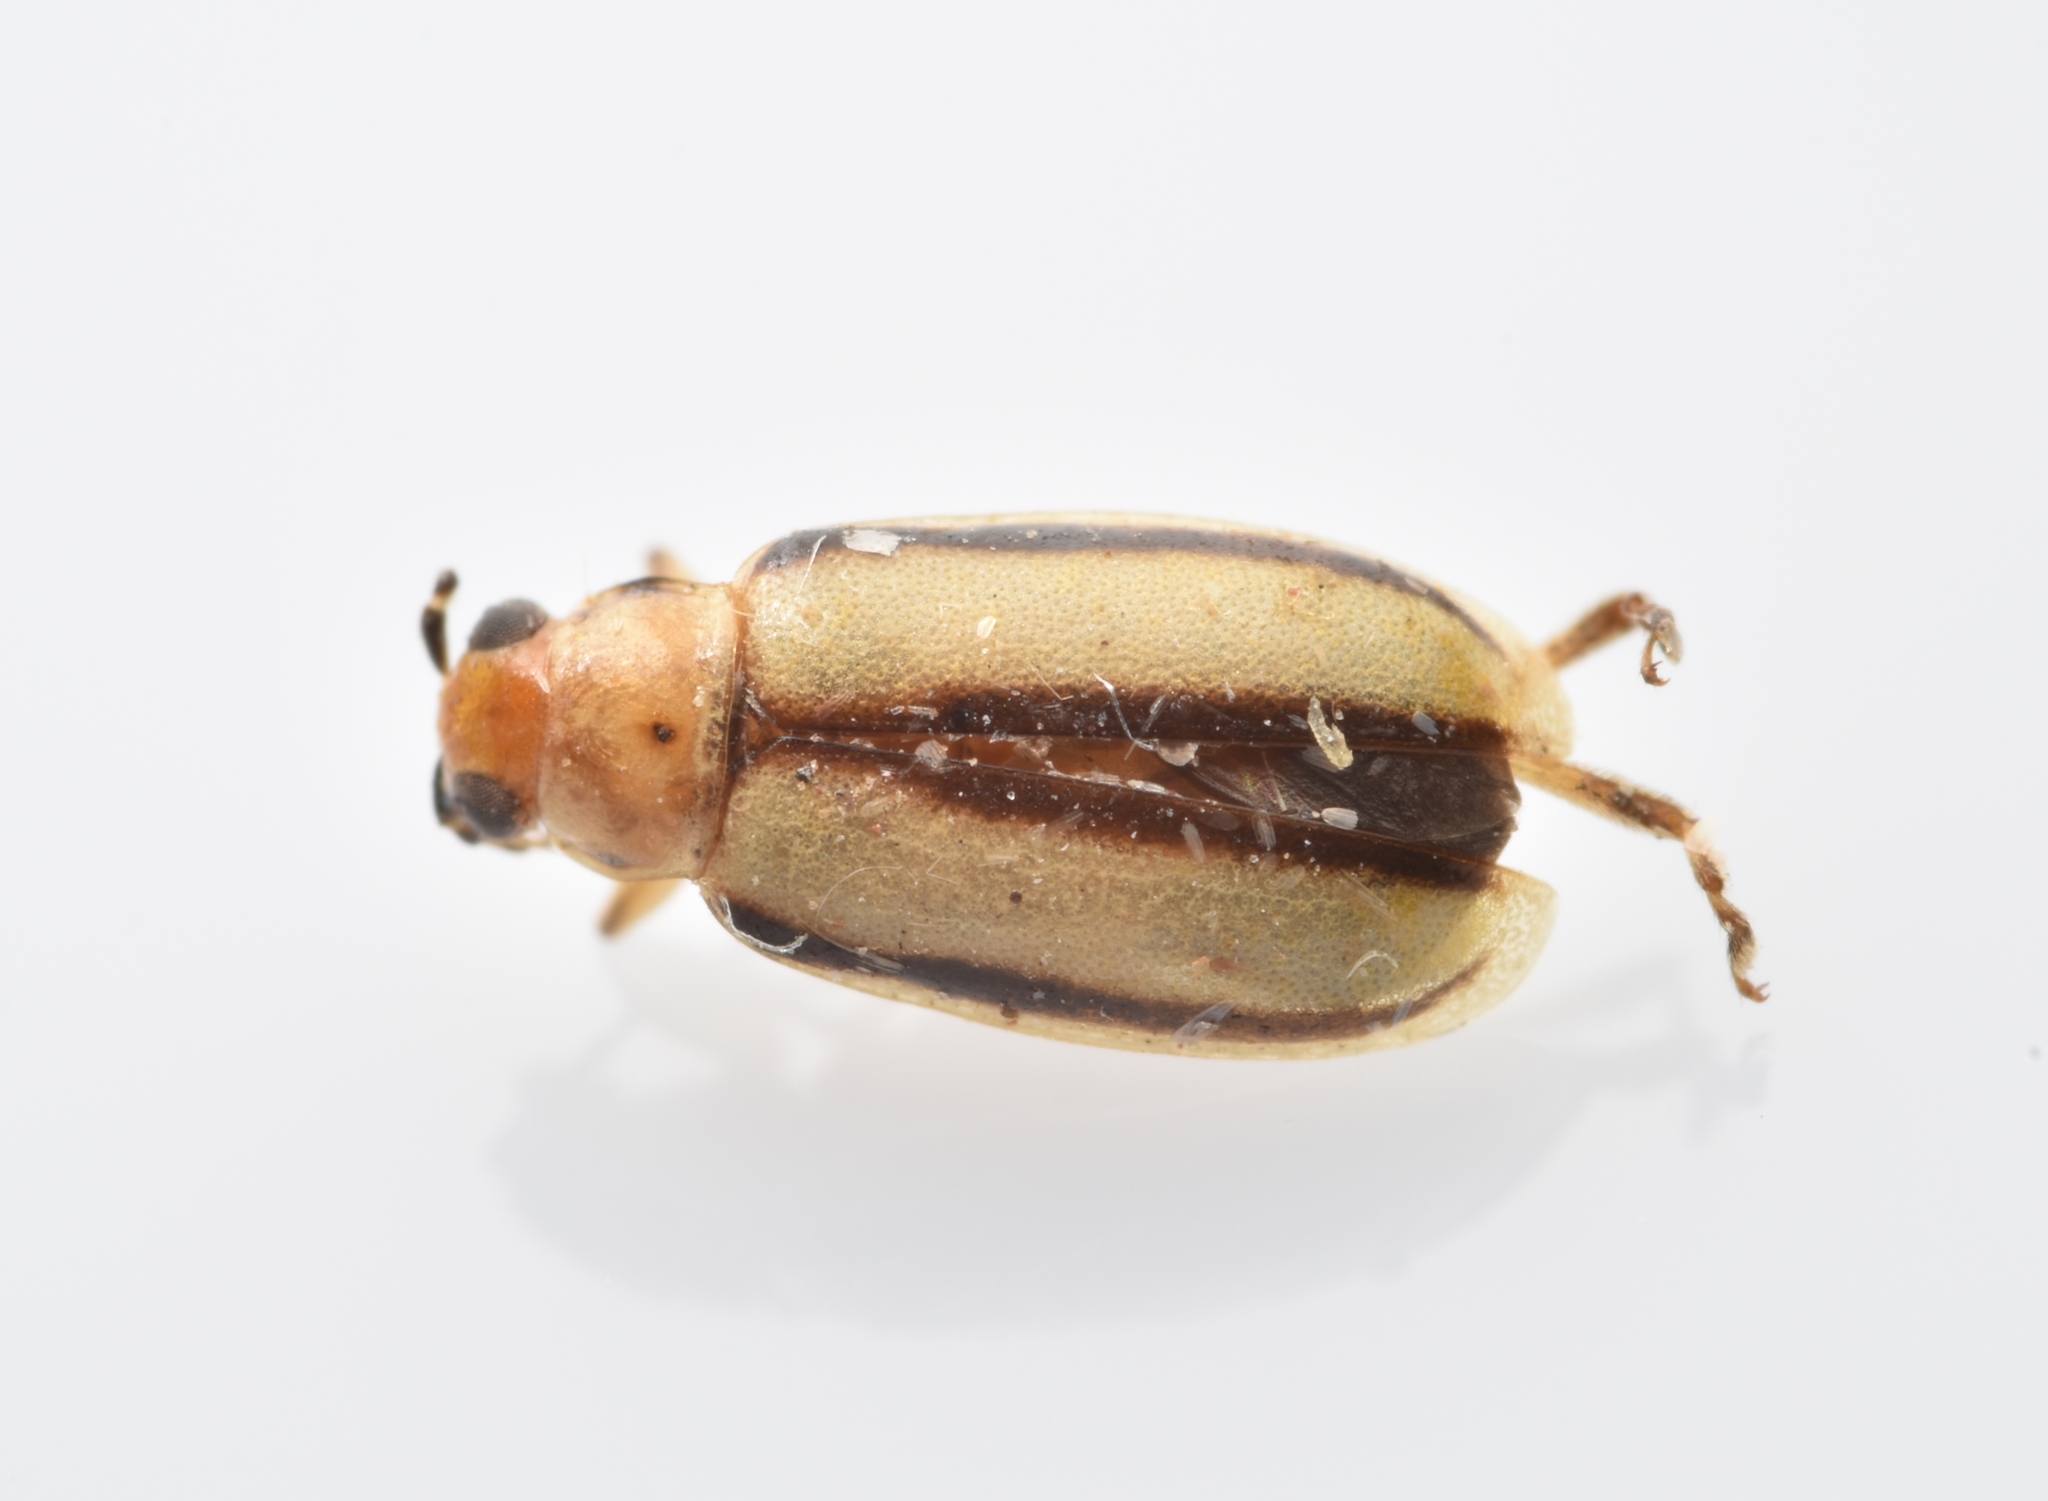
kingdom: Animalia
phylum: Arthropoda
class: Insecta
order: Coleoptera
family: Chrysomelidae
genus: Systena
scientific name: Systena gracilenta
